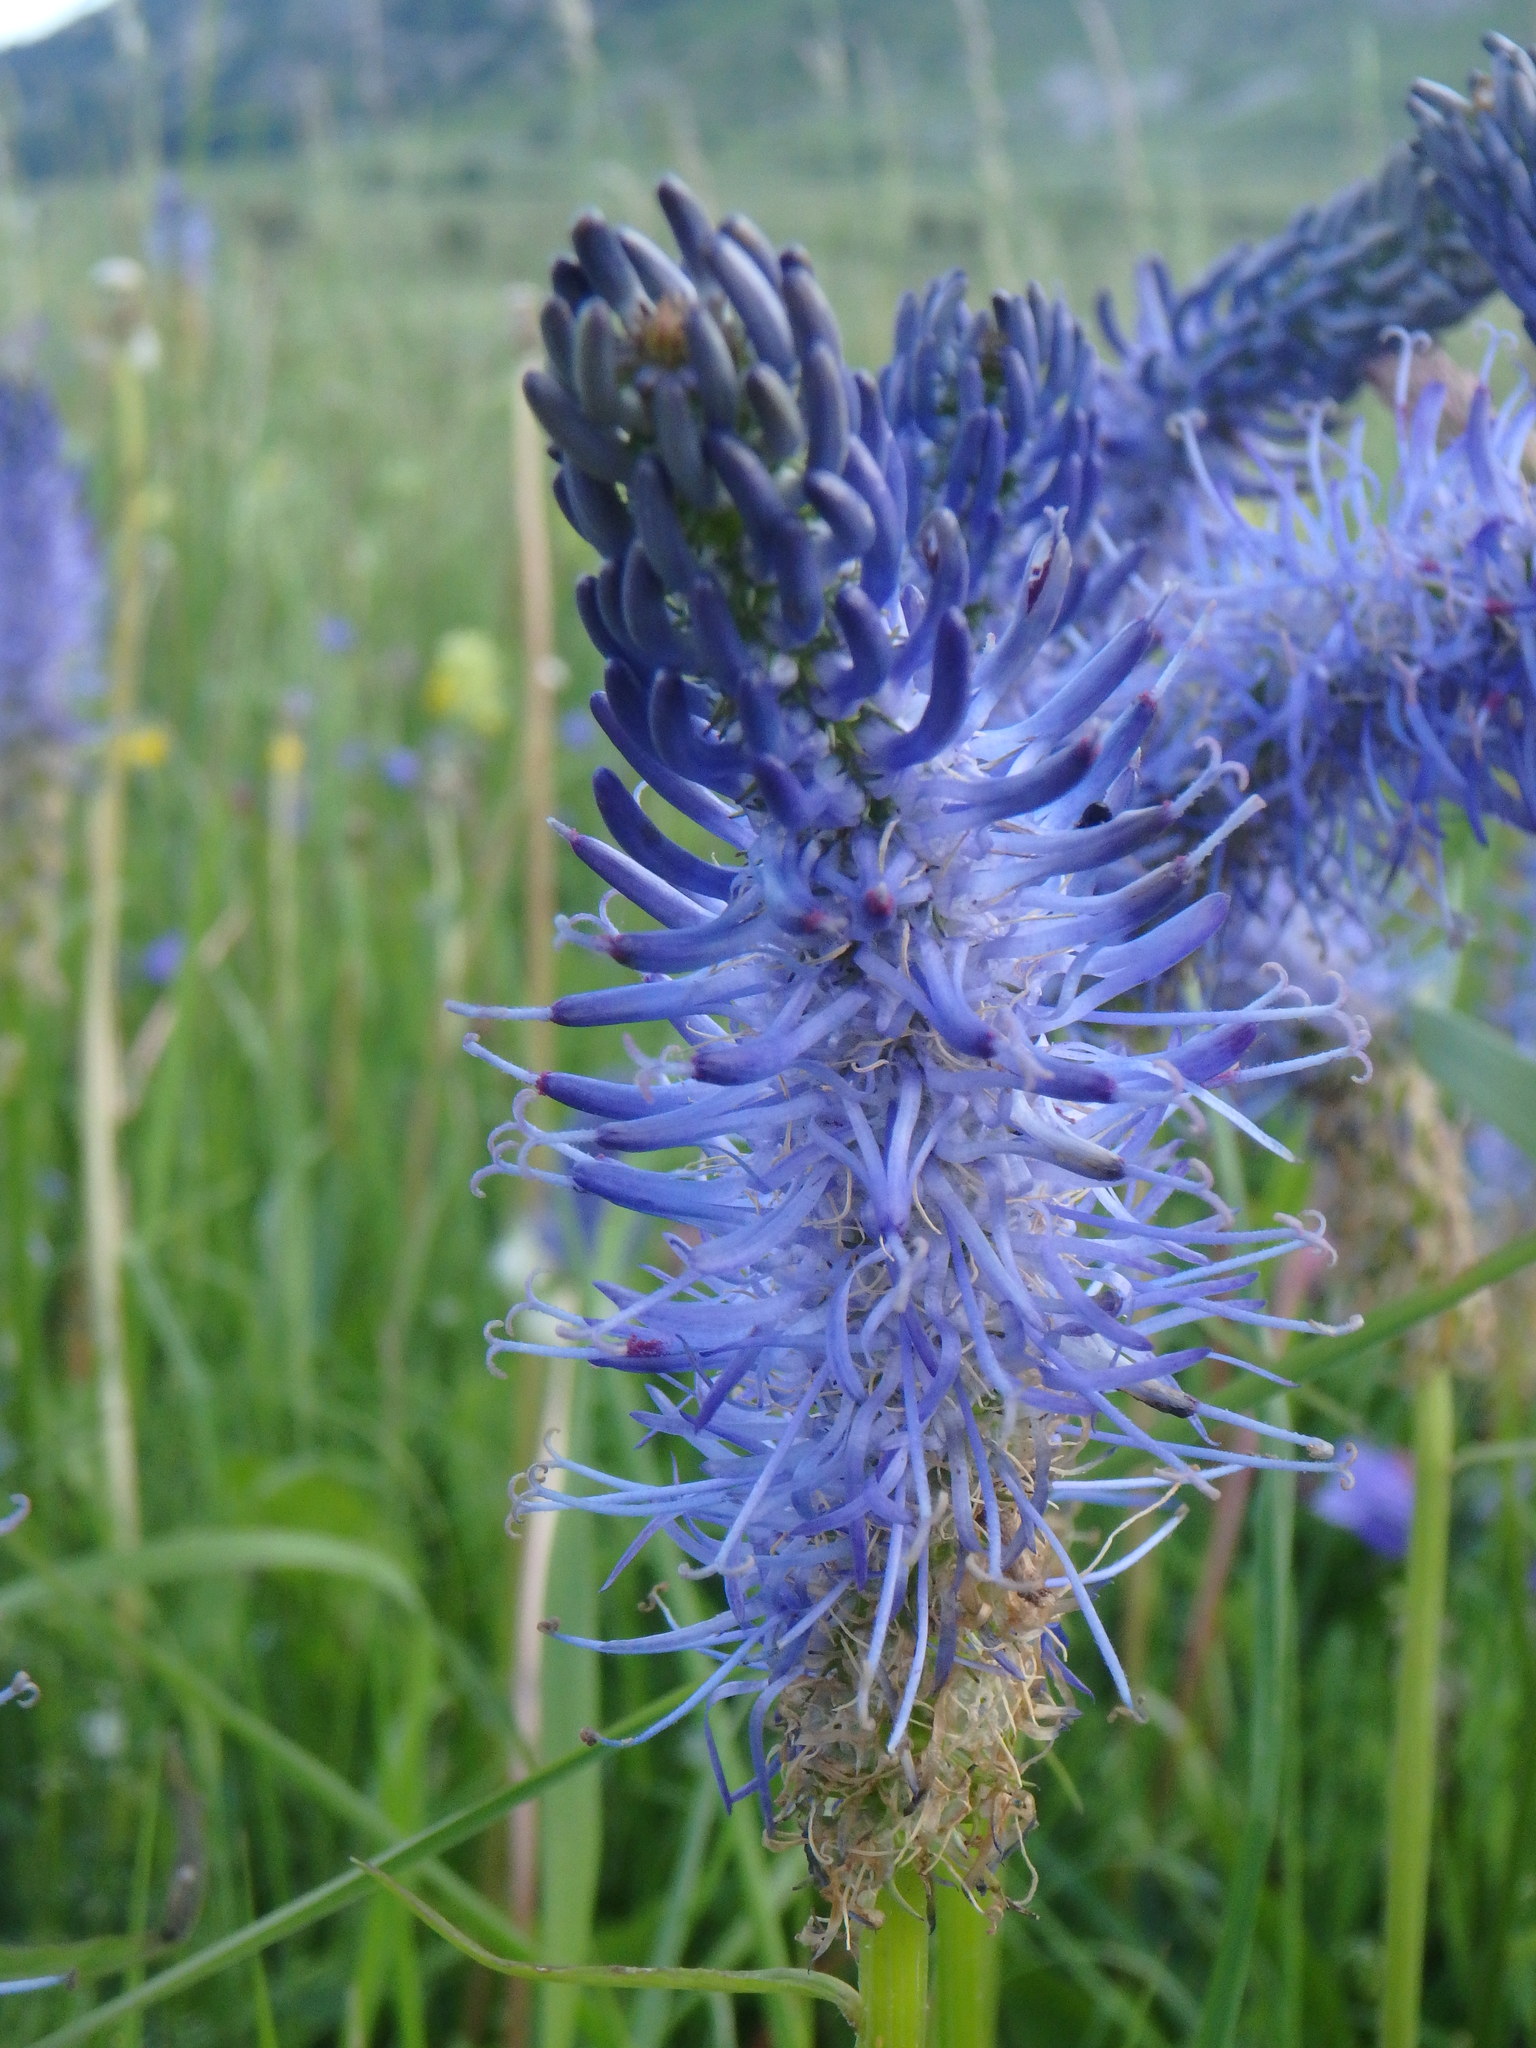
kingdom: Plantae
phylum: Tracheophyta
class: Magnoliopsida
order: Asterales
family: Campanulaceae
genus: Phyteuma
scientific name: Phyteuma spicatum
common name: Spiked rampion
